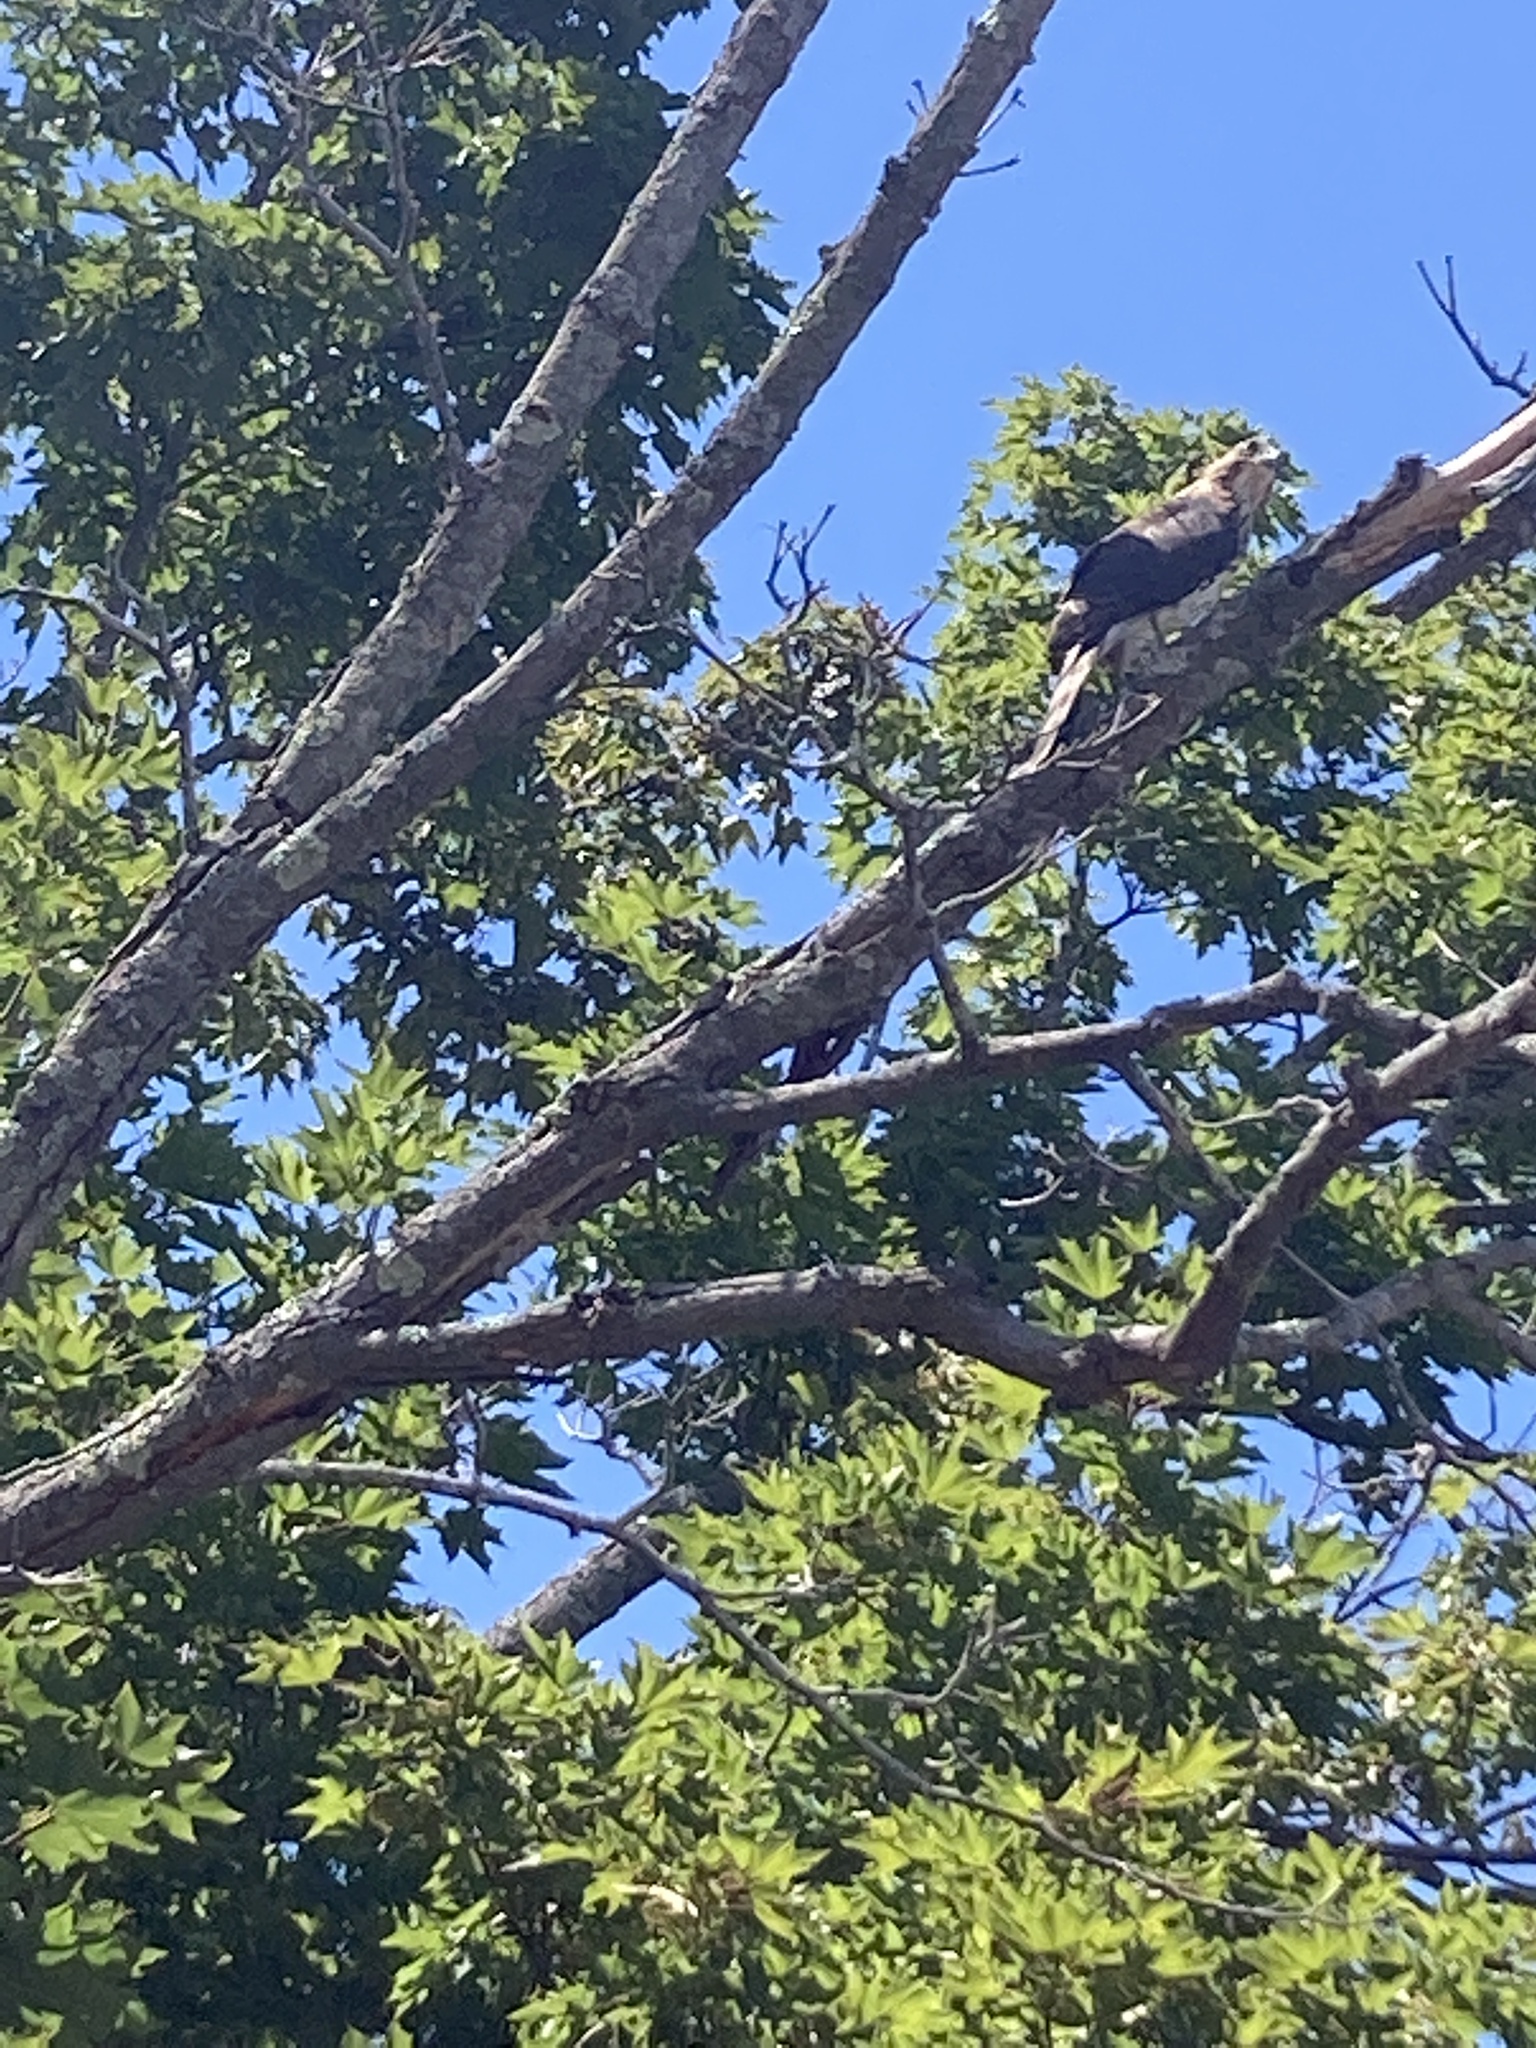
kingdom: Animalia
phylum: Chordata
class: Aves
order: Accipitriformes
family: Accipitridae
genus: Accipiter
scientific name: Accipiter cooperii
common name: Cooper's hawk
